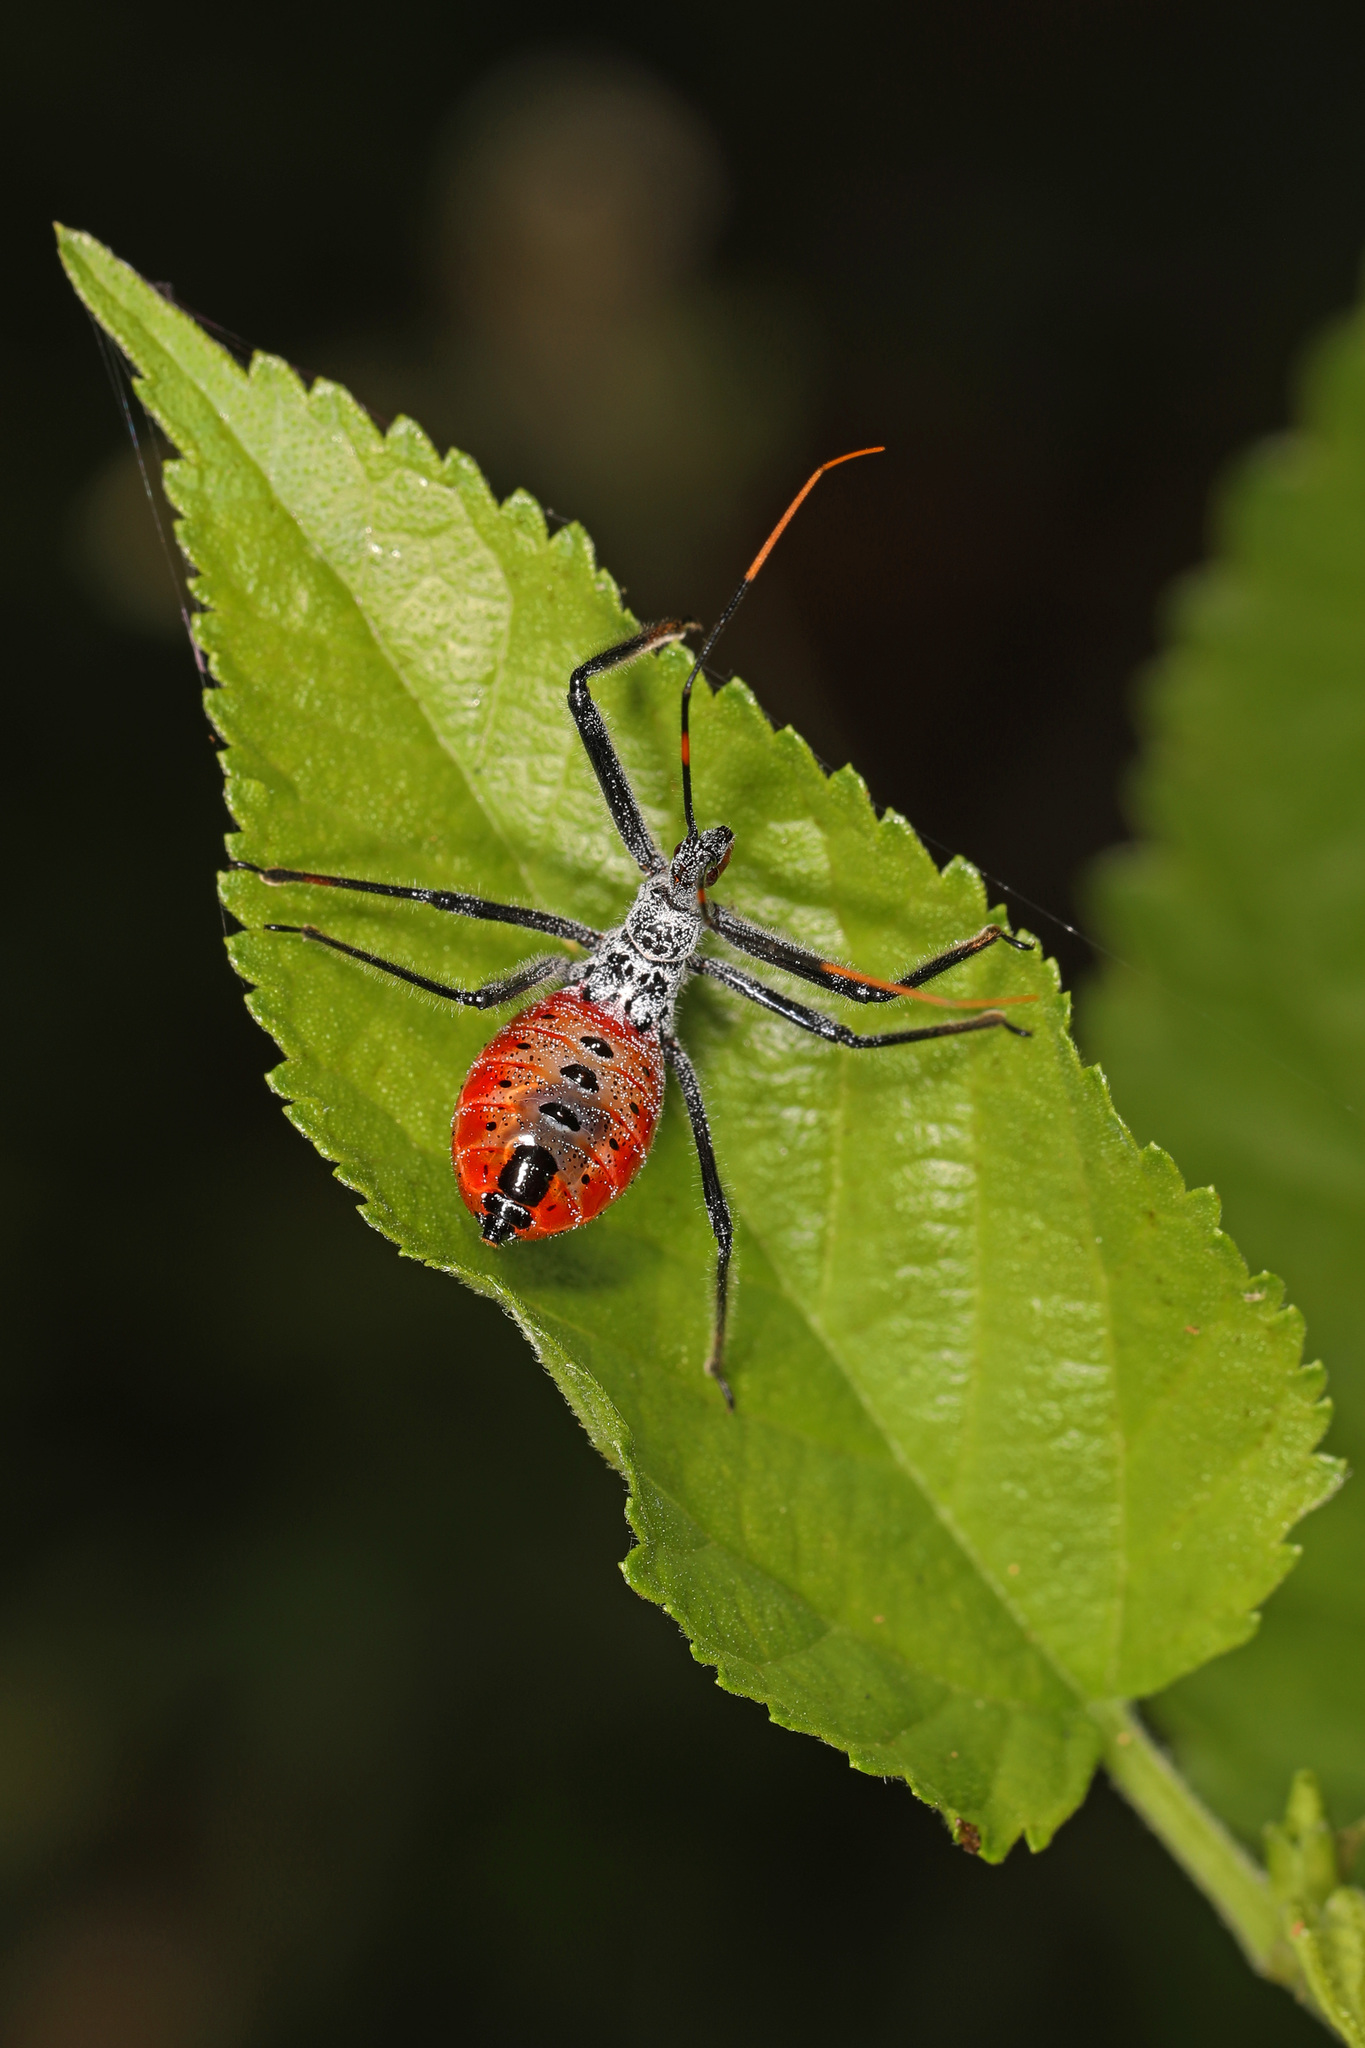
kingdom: Animalia
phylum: Arthropoda
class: Insecta
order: Hemiptera
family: Reduviidae
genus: Arilus
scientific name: Arilus cristatus
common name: North american wheel bug
